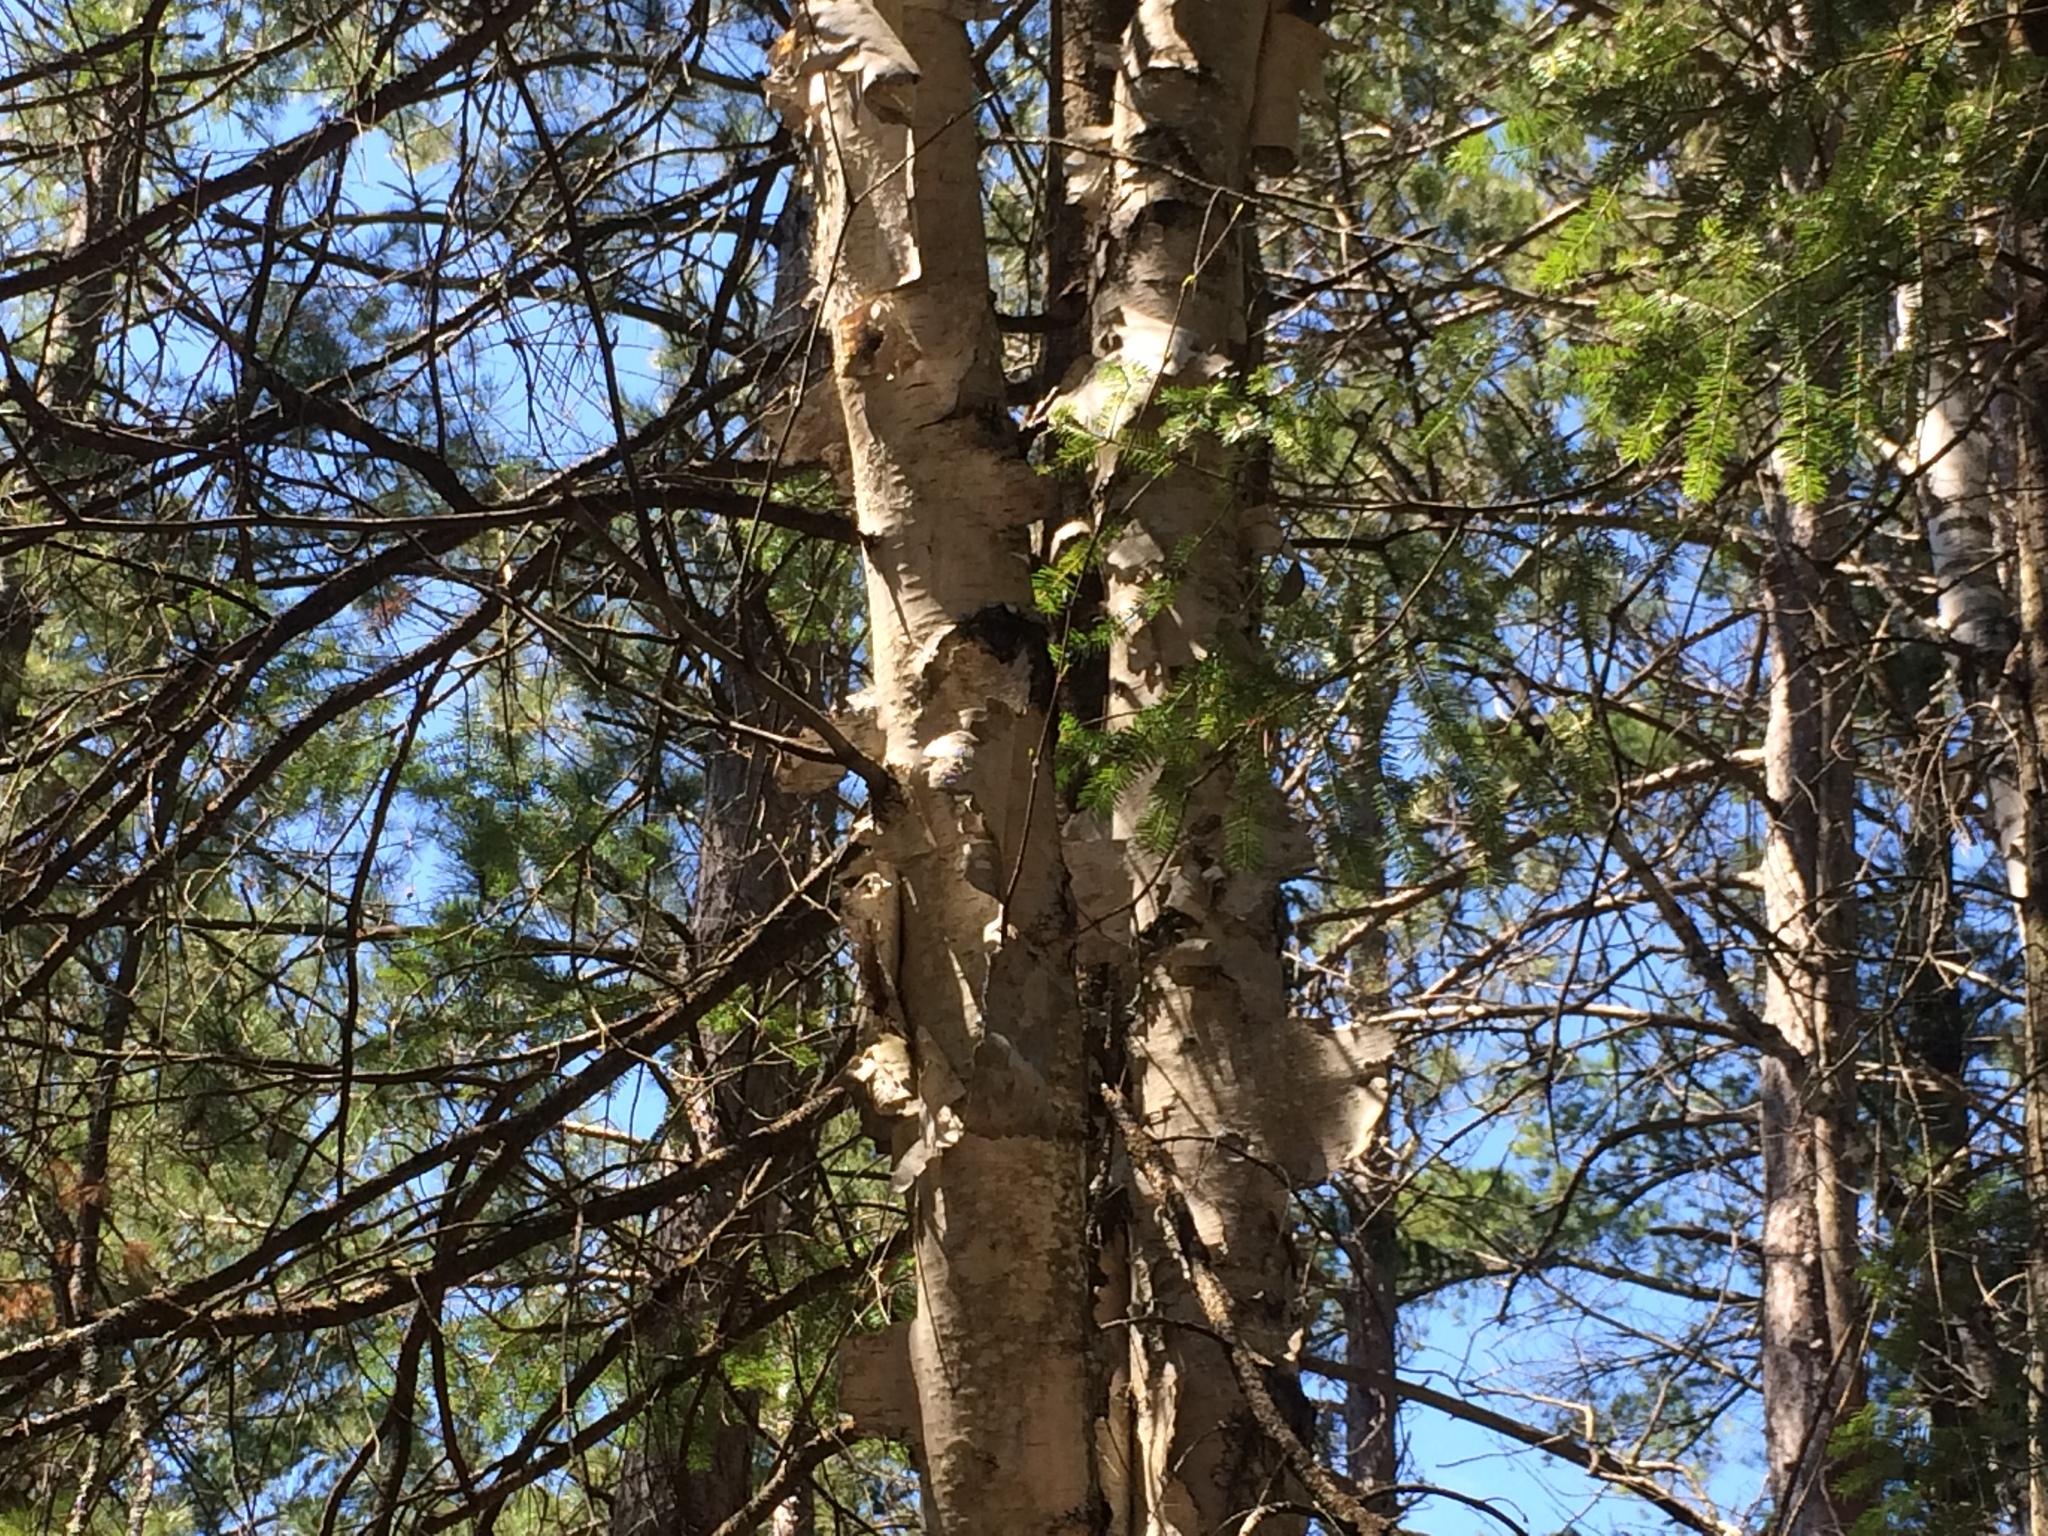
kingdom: Plantae
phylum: Tracheophyta
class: Magnoliopsida
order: Fagales
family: Betulaceae
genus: Betula
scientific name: Betula papyrifera
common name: Paper birch
